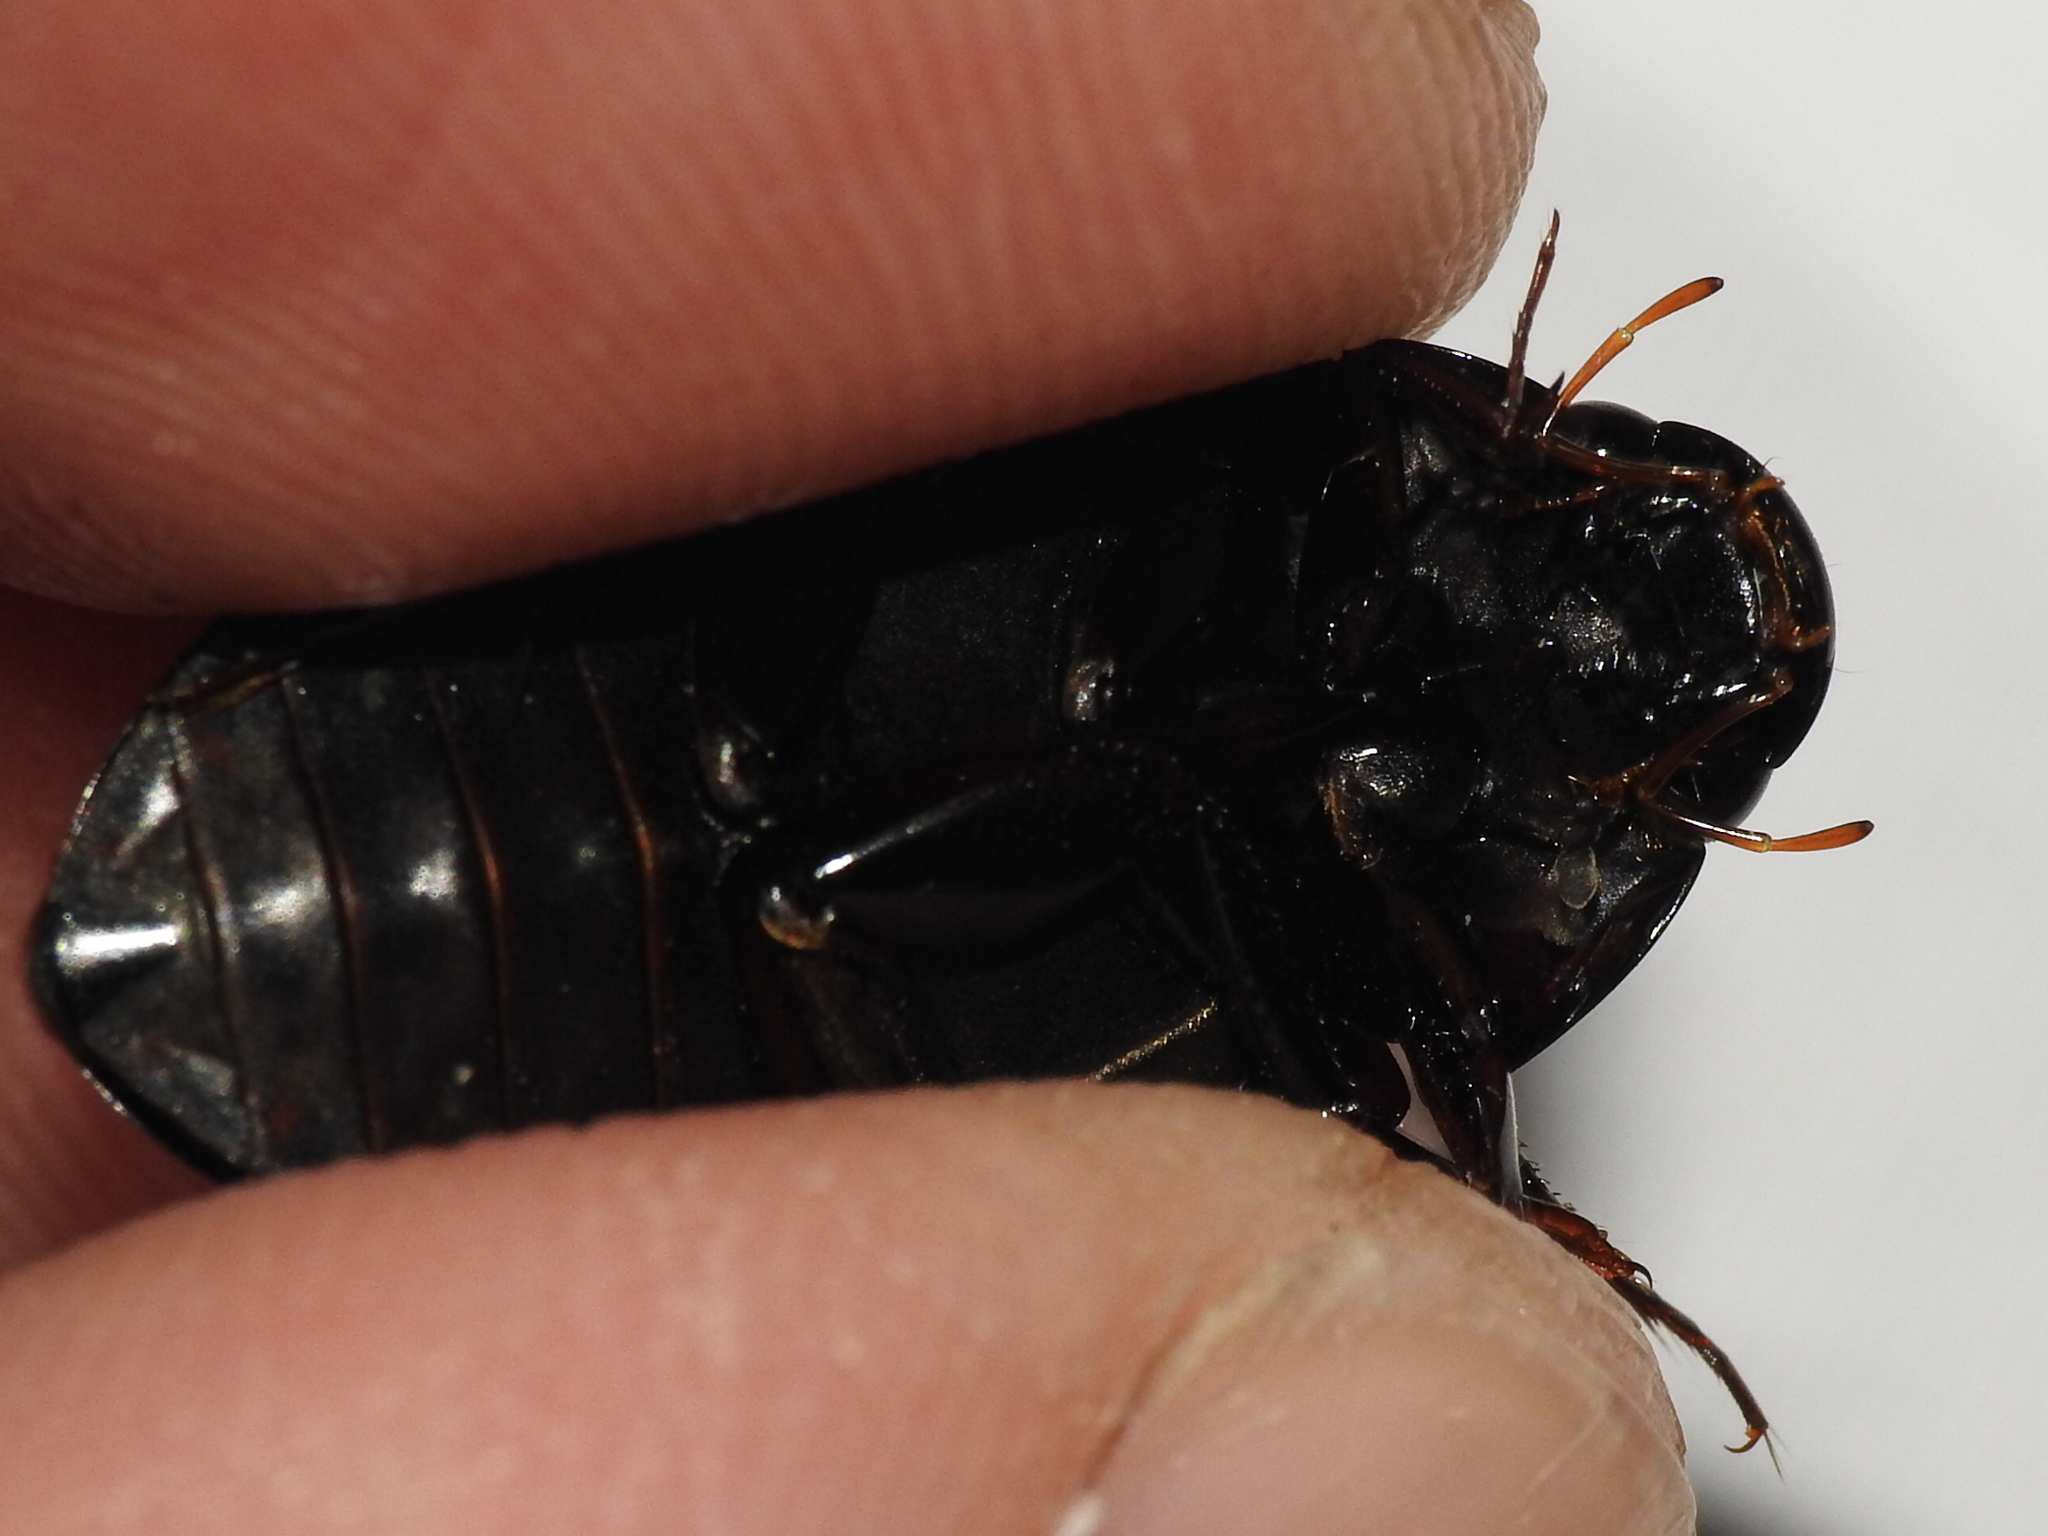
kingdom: Animalia
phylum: Arthropoda
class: Insecta
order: Coleoptera
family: Hydrophilidae
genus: Hydrochara
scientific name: Hydrochara
